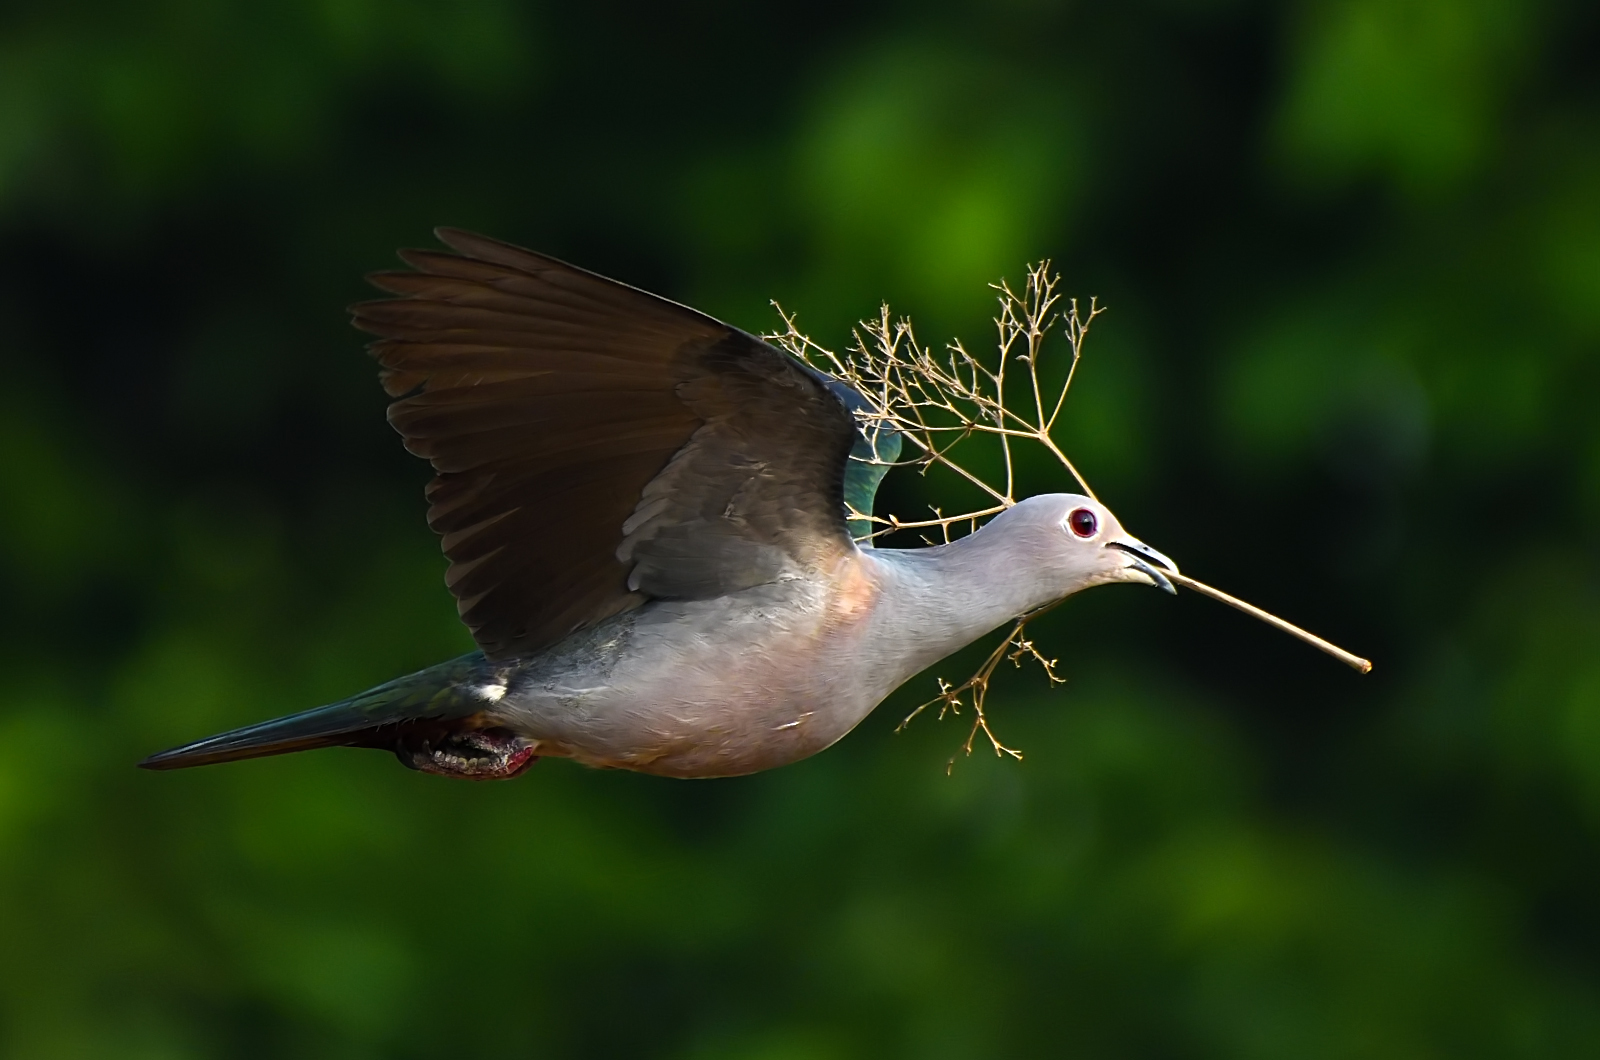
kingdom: Animalia
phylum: Chordata
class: Aves
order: Columbiformes
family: Columbidae
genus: Ducula
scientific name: Ducula aenea
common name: Green imperial pigeon
